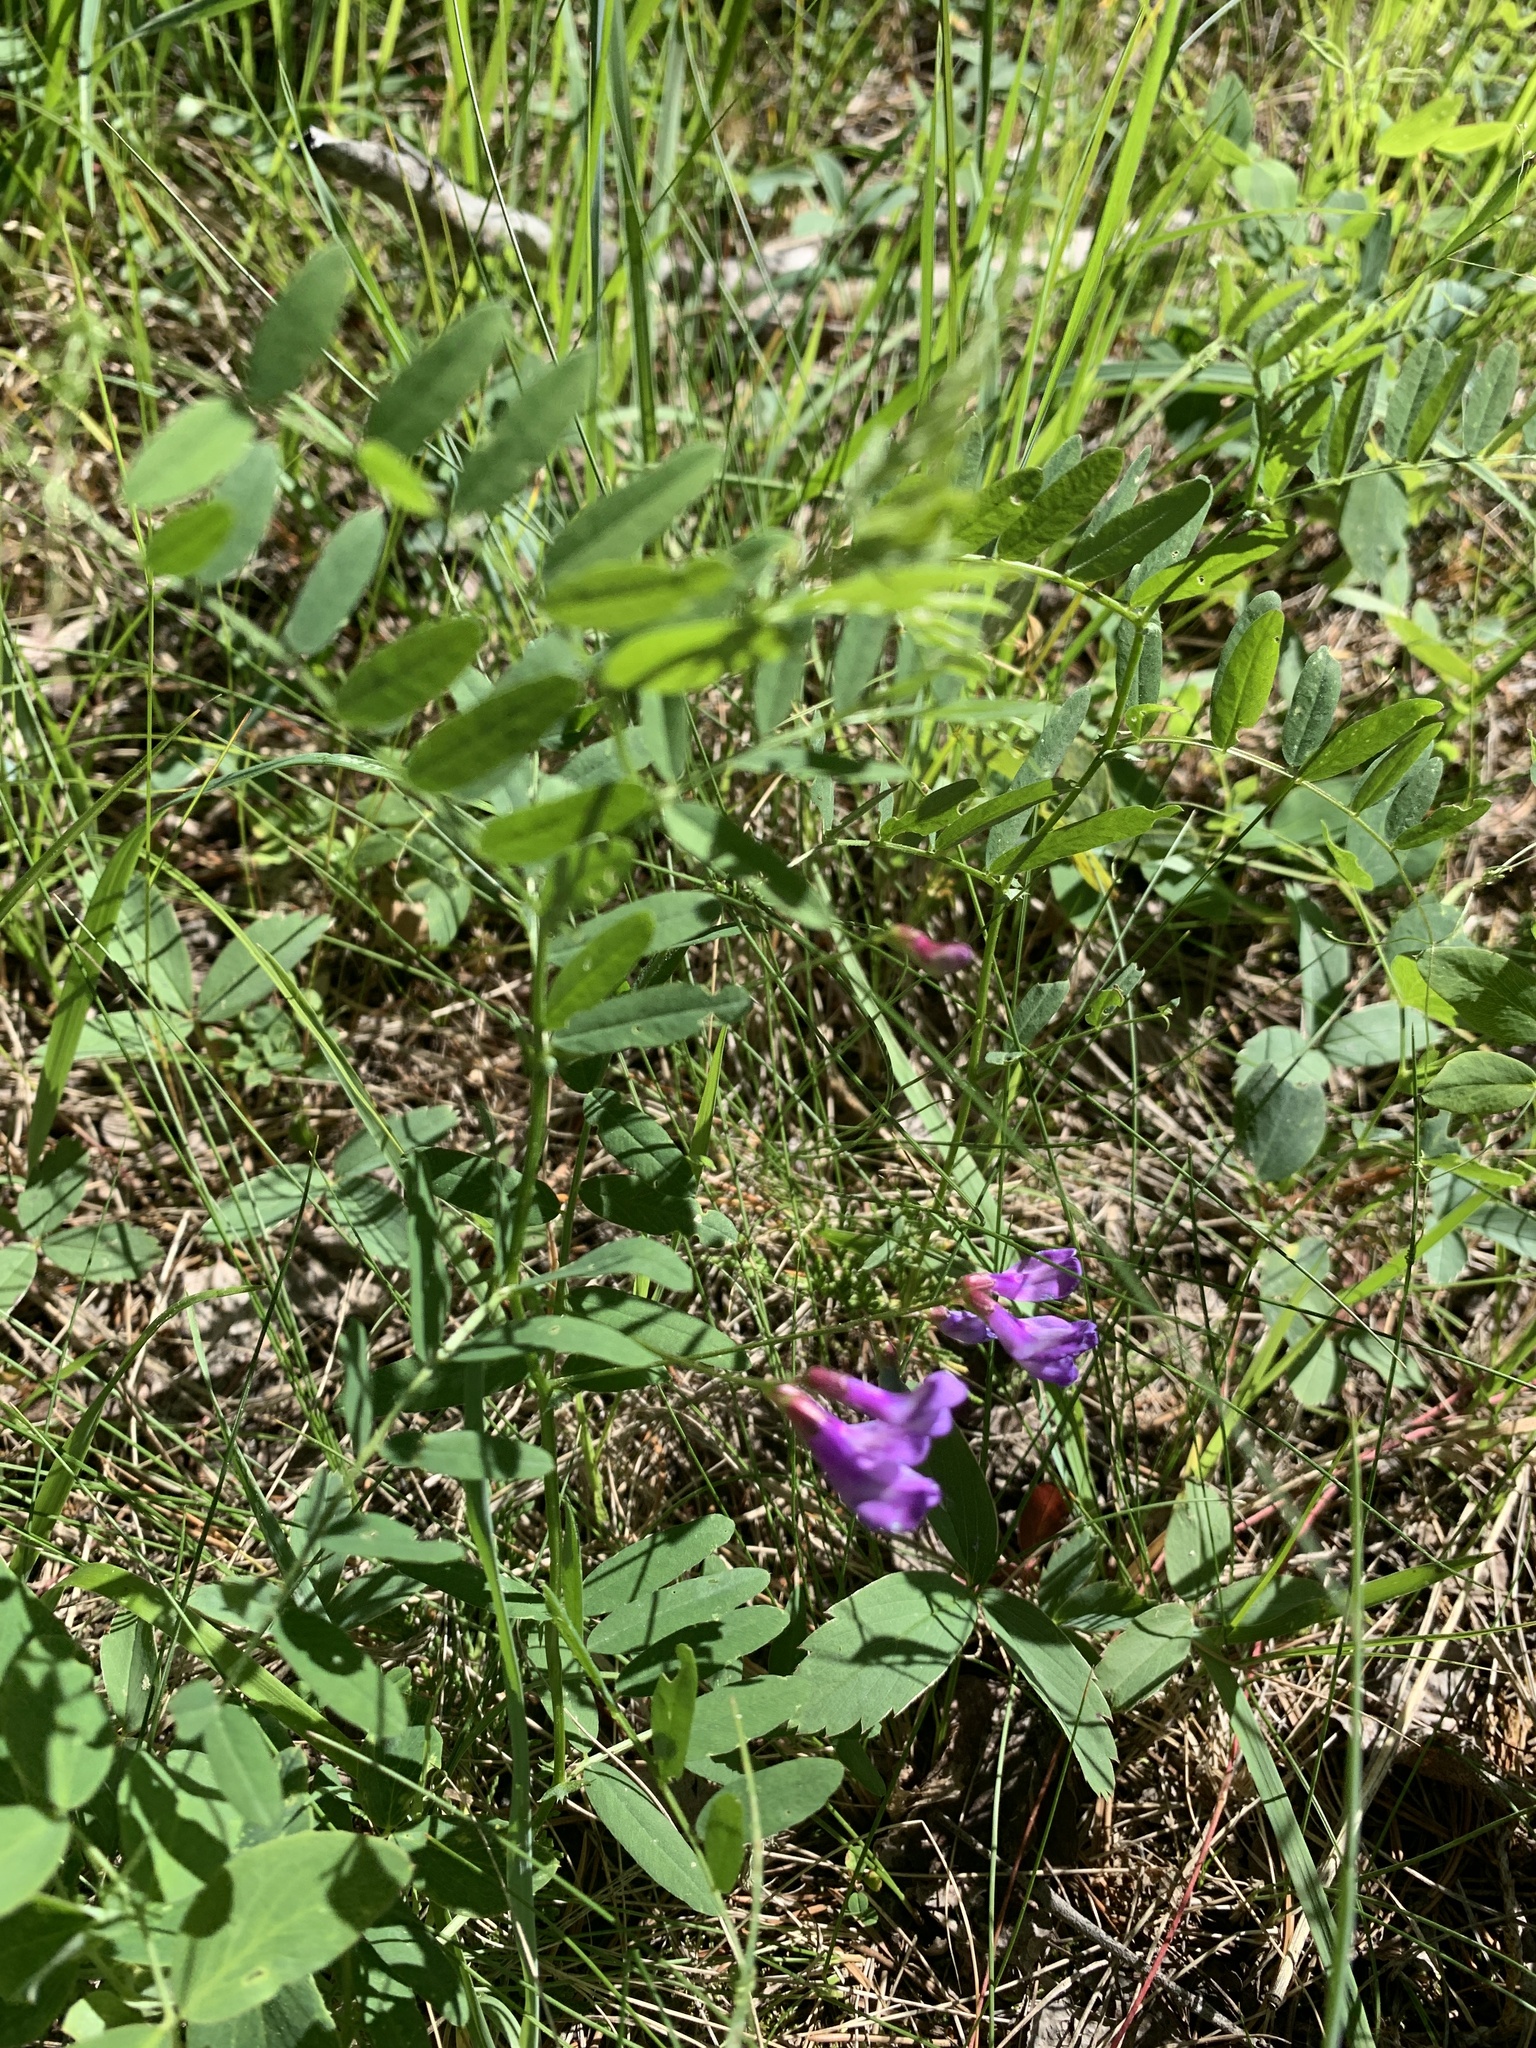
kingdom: Plantae
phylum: Tracheophyta
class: Magnoliopsida
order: Fabales
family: Fabaceae
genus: Vicia
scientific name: Vicia americana
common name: American vetch
